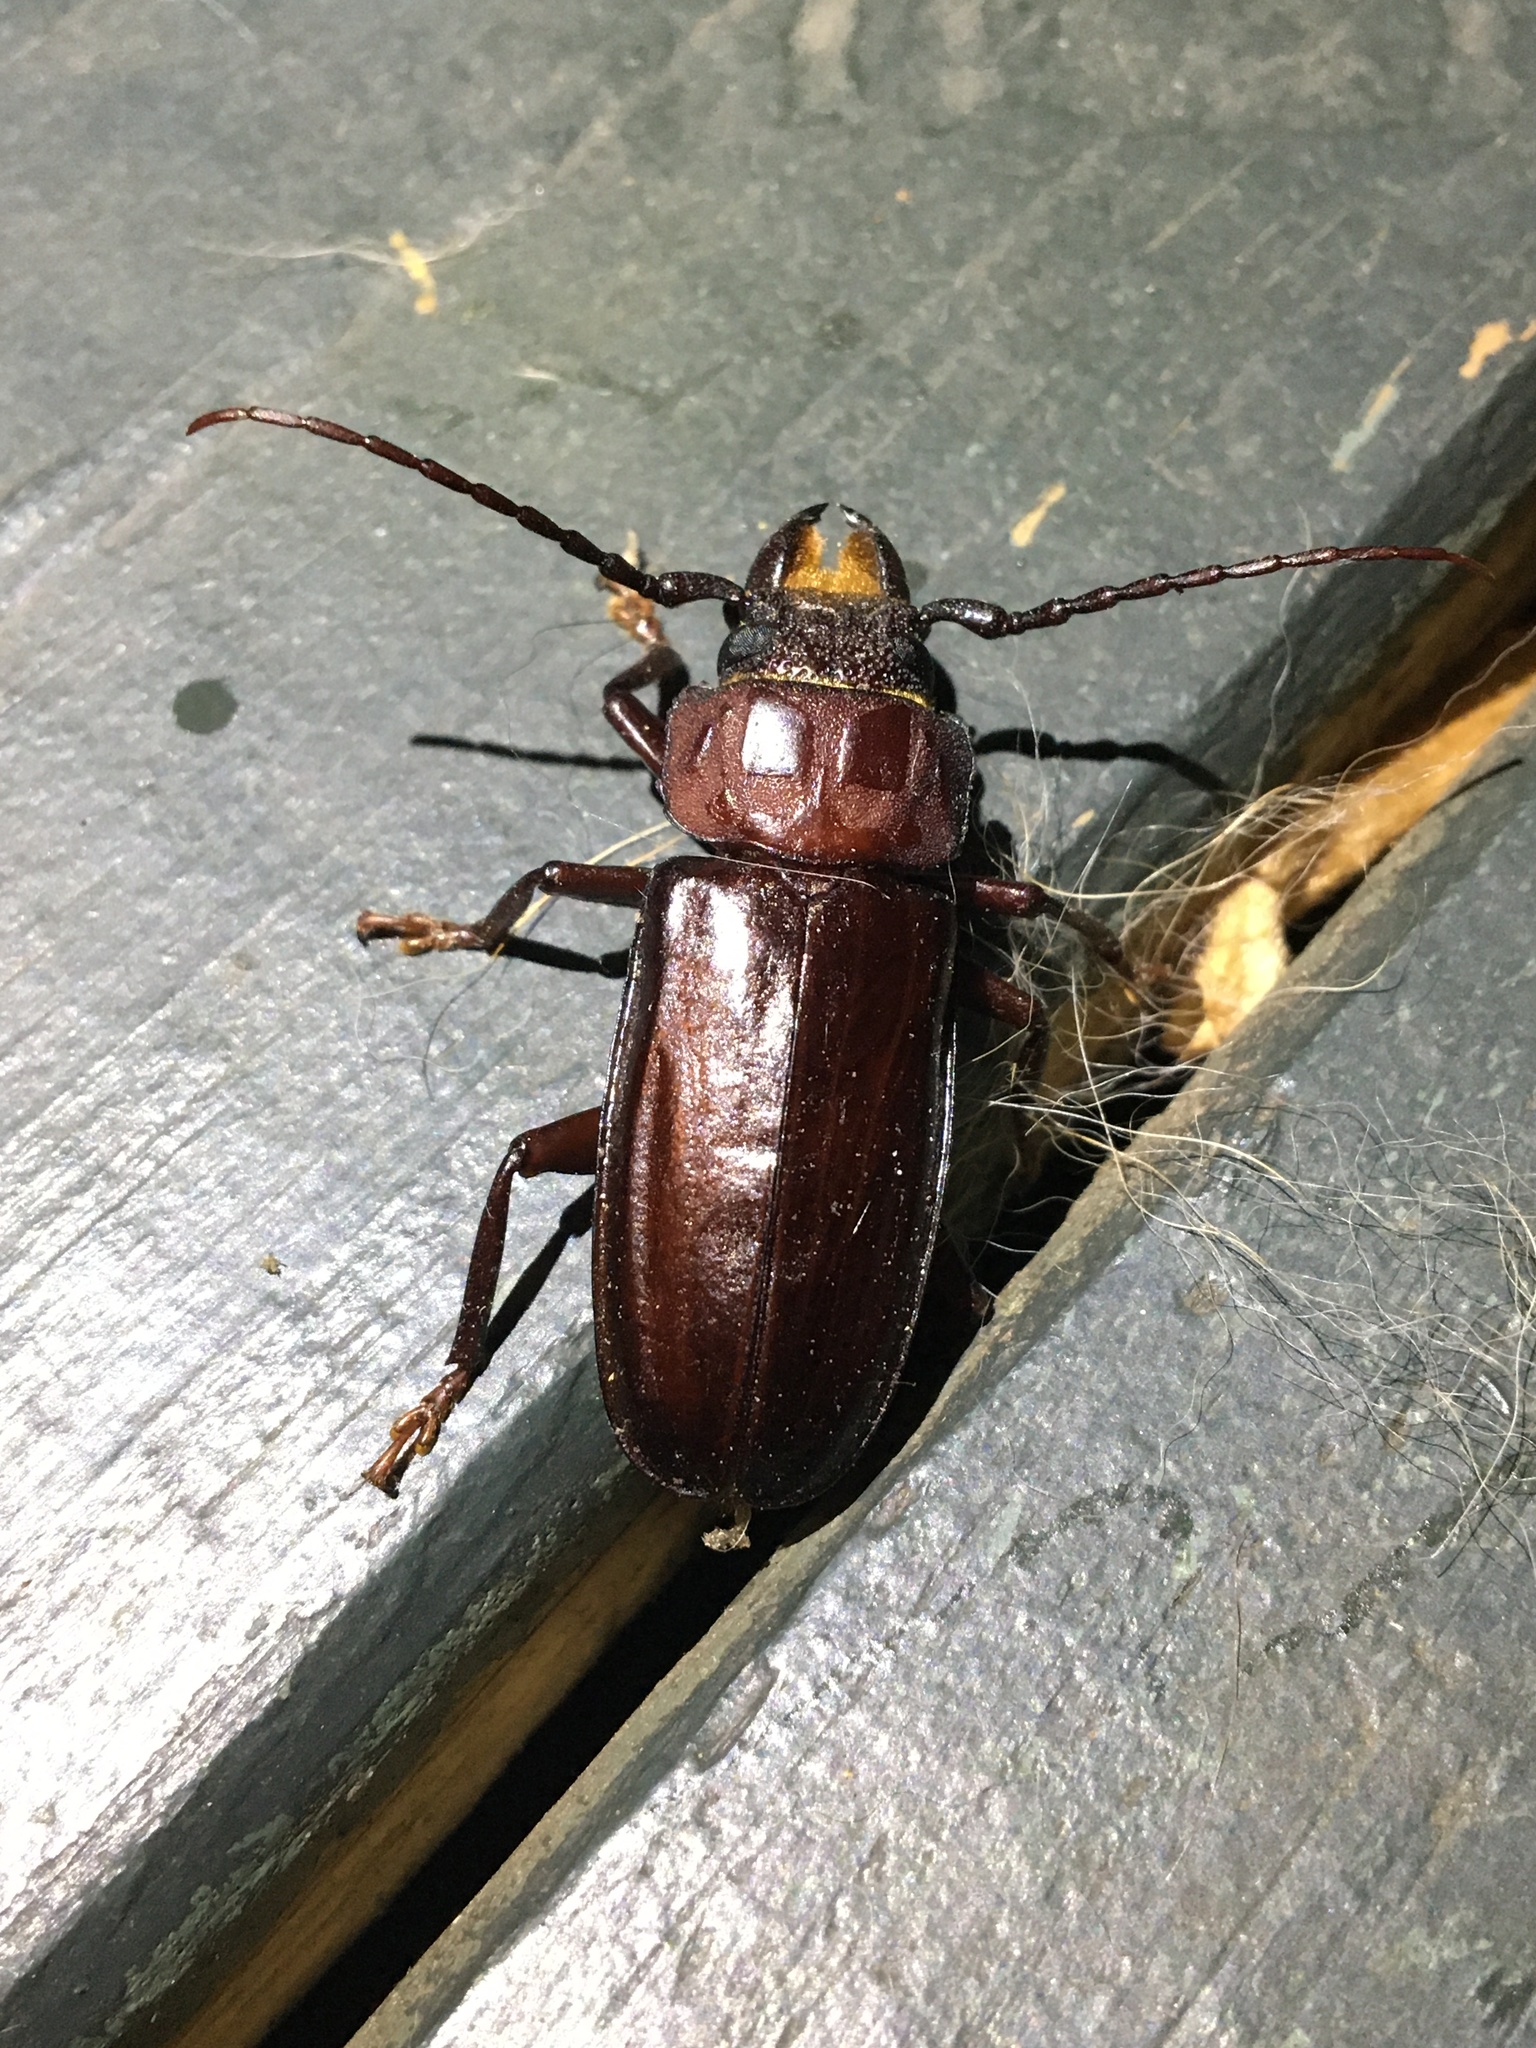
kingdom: Animalia
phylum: Arthropoda
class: Insecta
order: Coleoptera
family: Cerambycidae
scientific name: Cerambycidae
